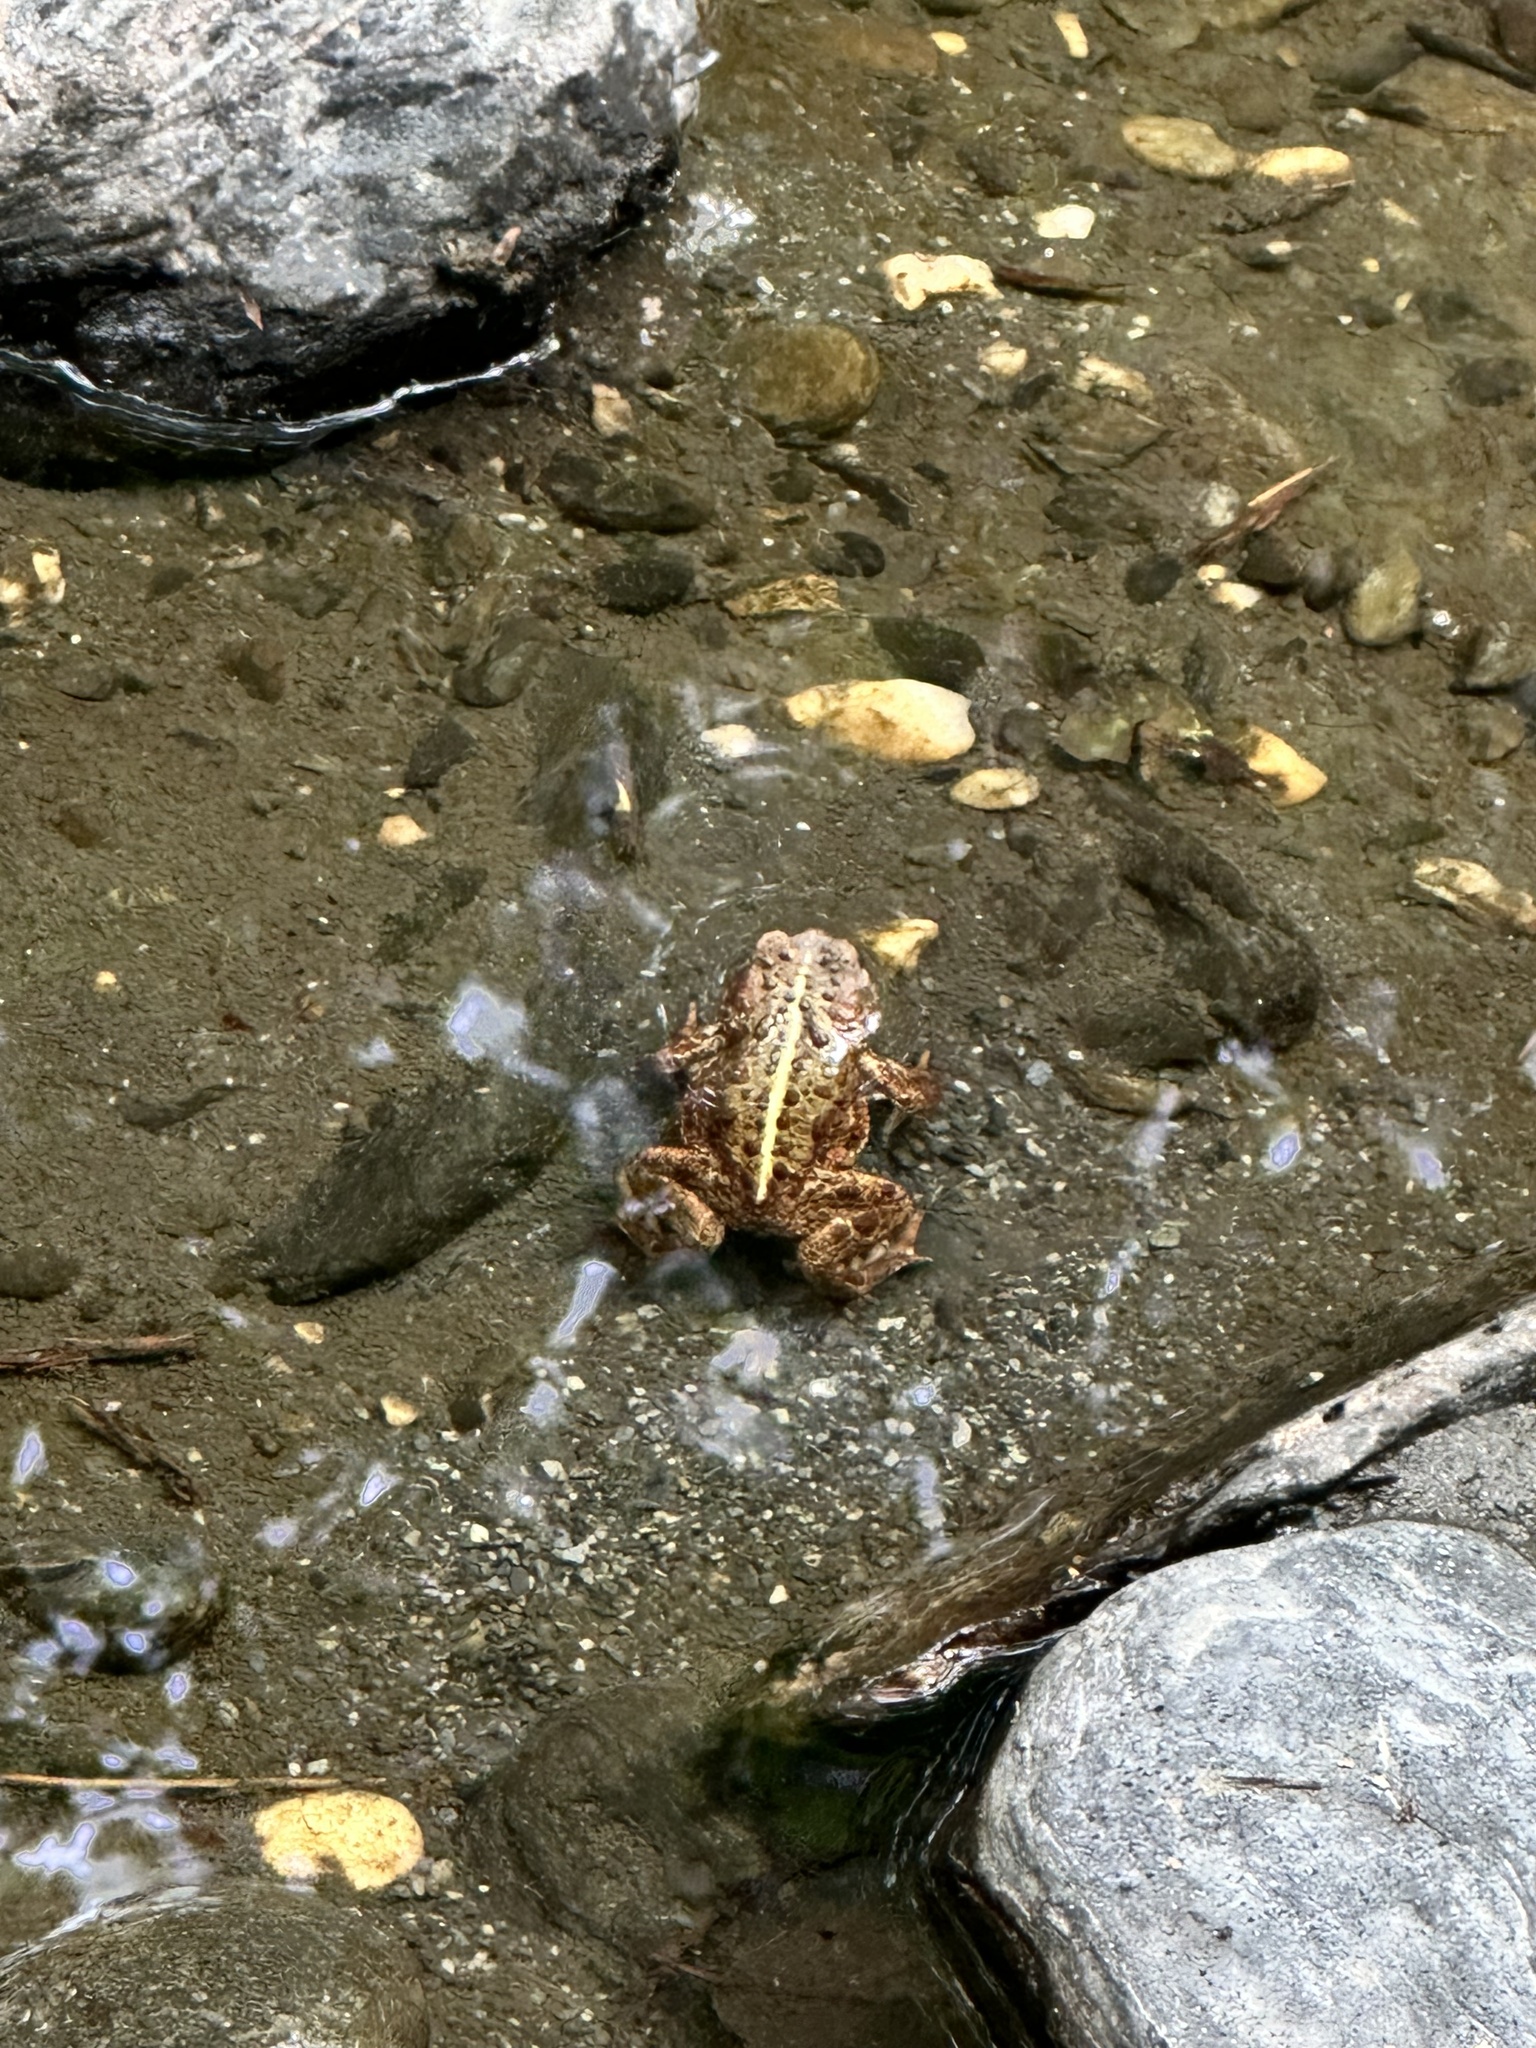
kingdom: Animalia
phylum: Chordata
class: Amphibia
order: Anura
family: Bufonidae
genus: Anaxyrus
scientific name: Anaxyrus boreas
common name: Western toad
